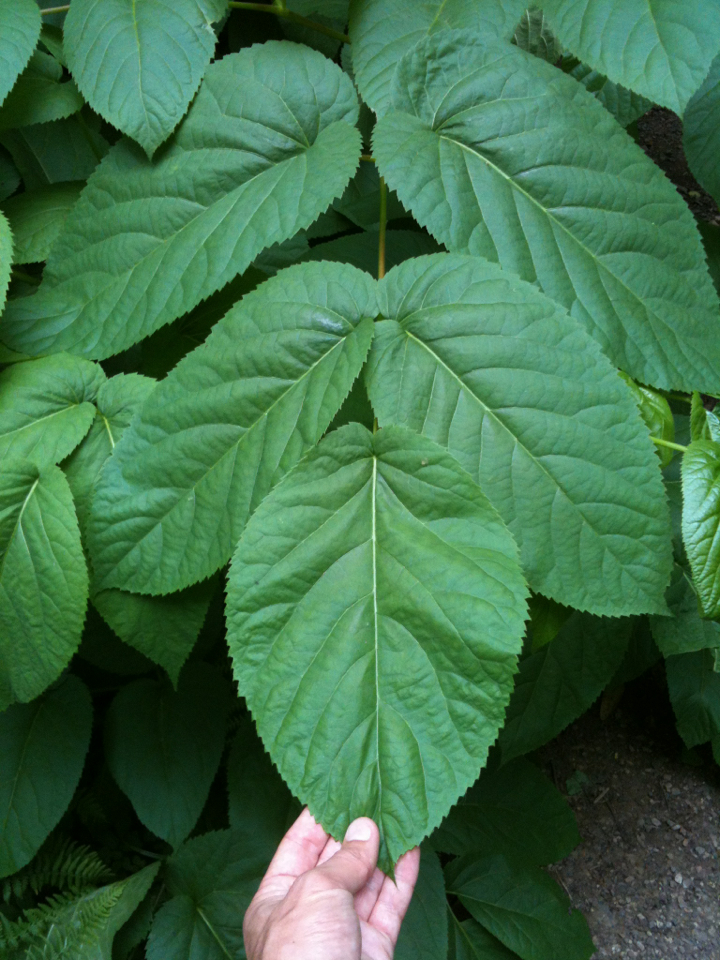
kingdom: Plantae
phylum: Tracheophyta
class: Magnoliopsida
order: Apiales
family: Araliaceae
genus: Aralia
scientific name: Aralia californica
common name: California-ginseng
